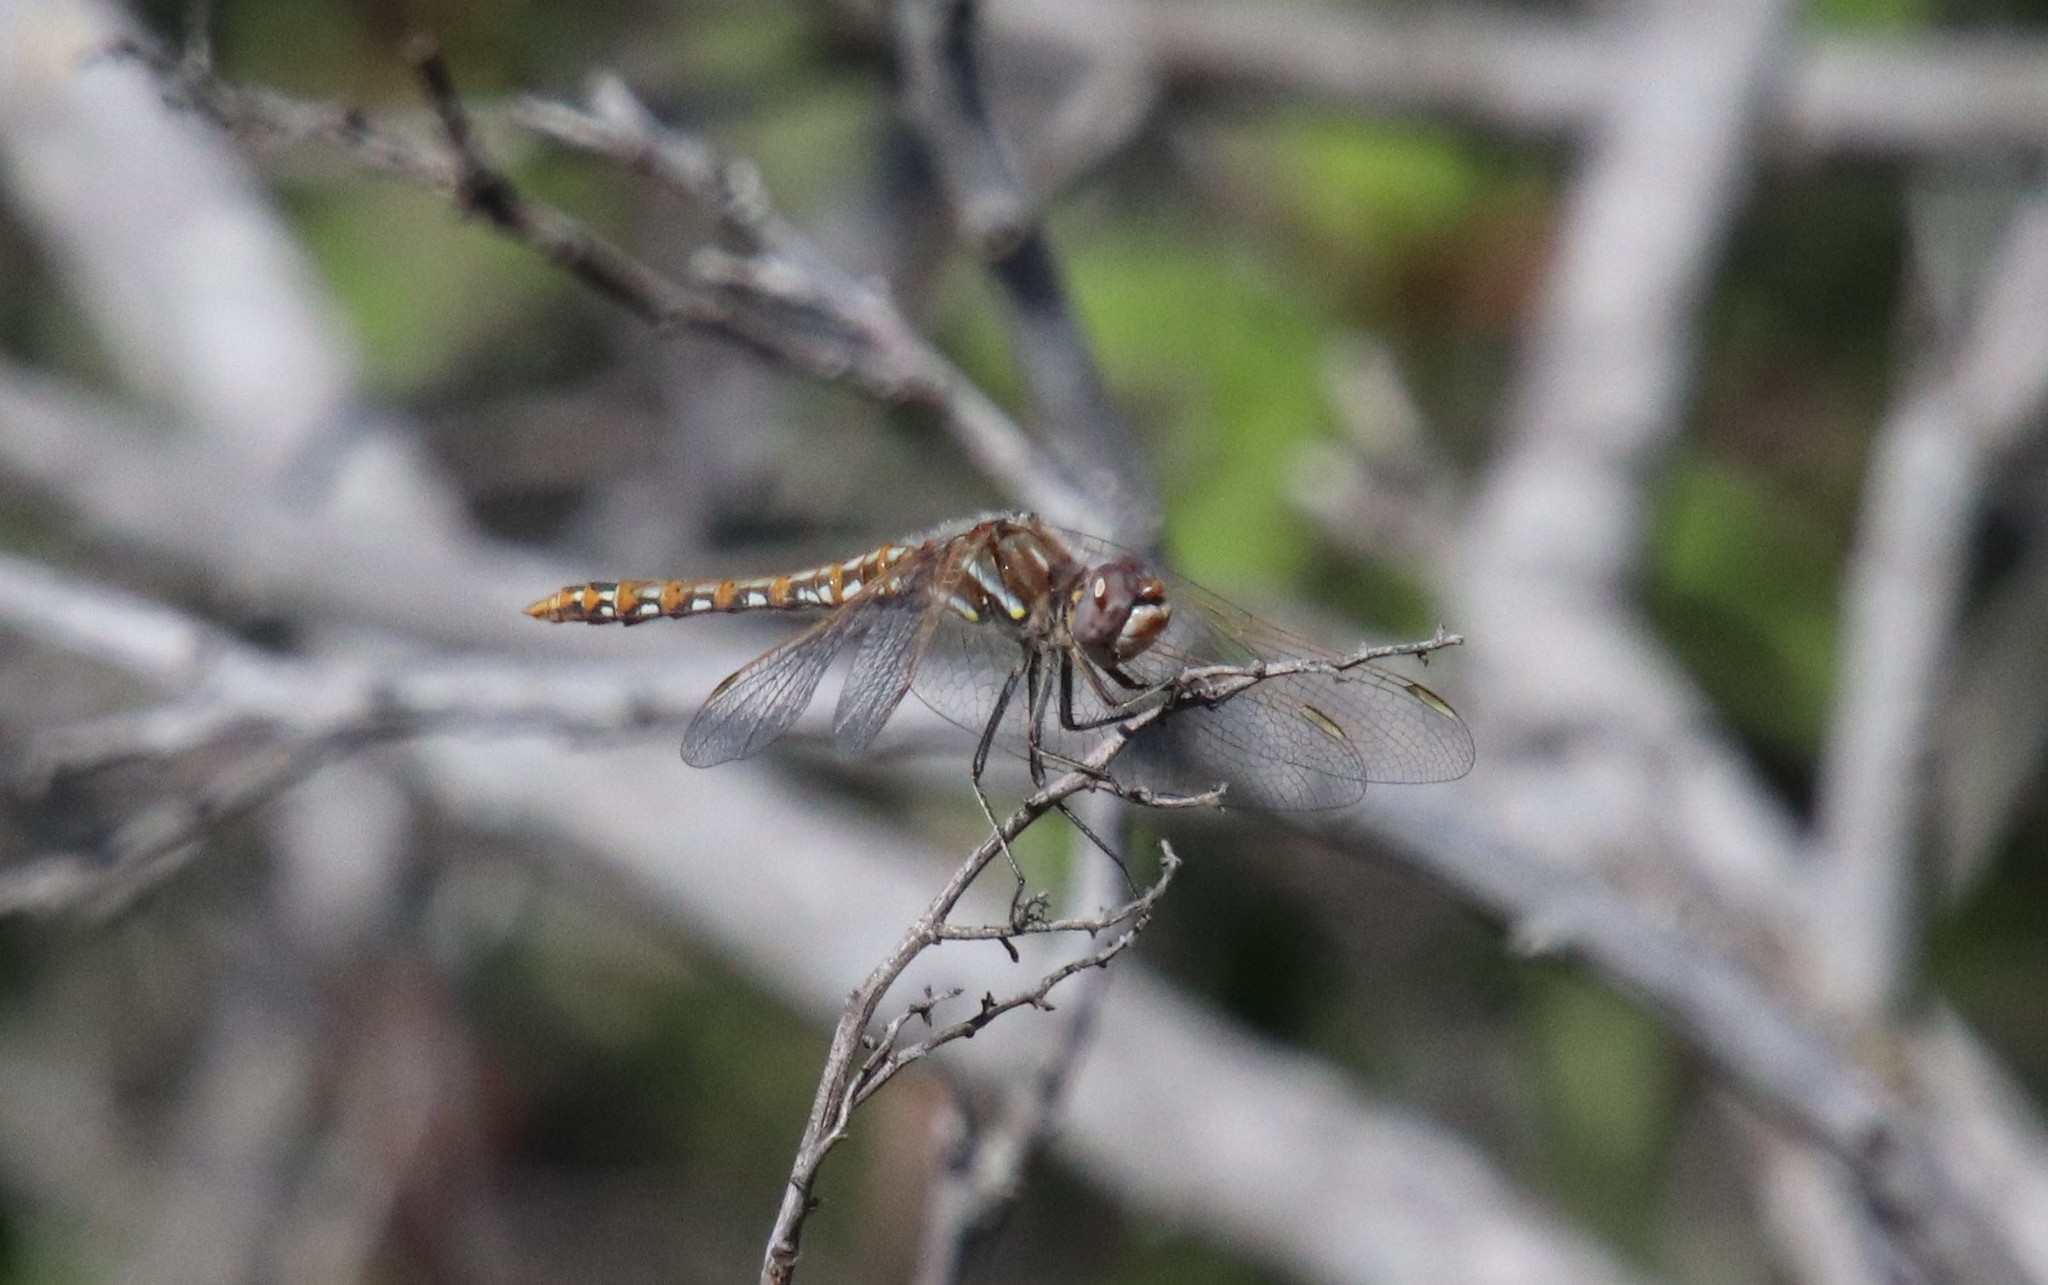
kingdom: Animalia
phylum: Arthropoda
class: Insecta
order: Odonata
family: Libellulidae
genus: Sympetrum
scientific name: Sympetrum corruptum
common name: Variegated meadowhawk
